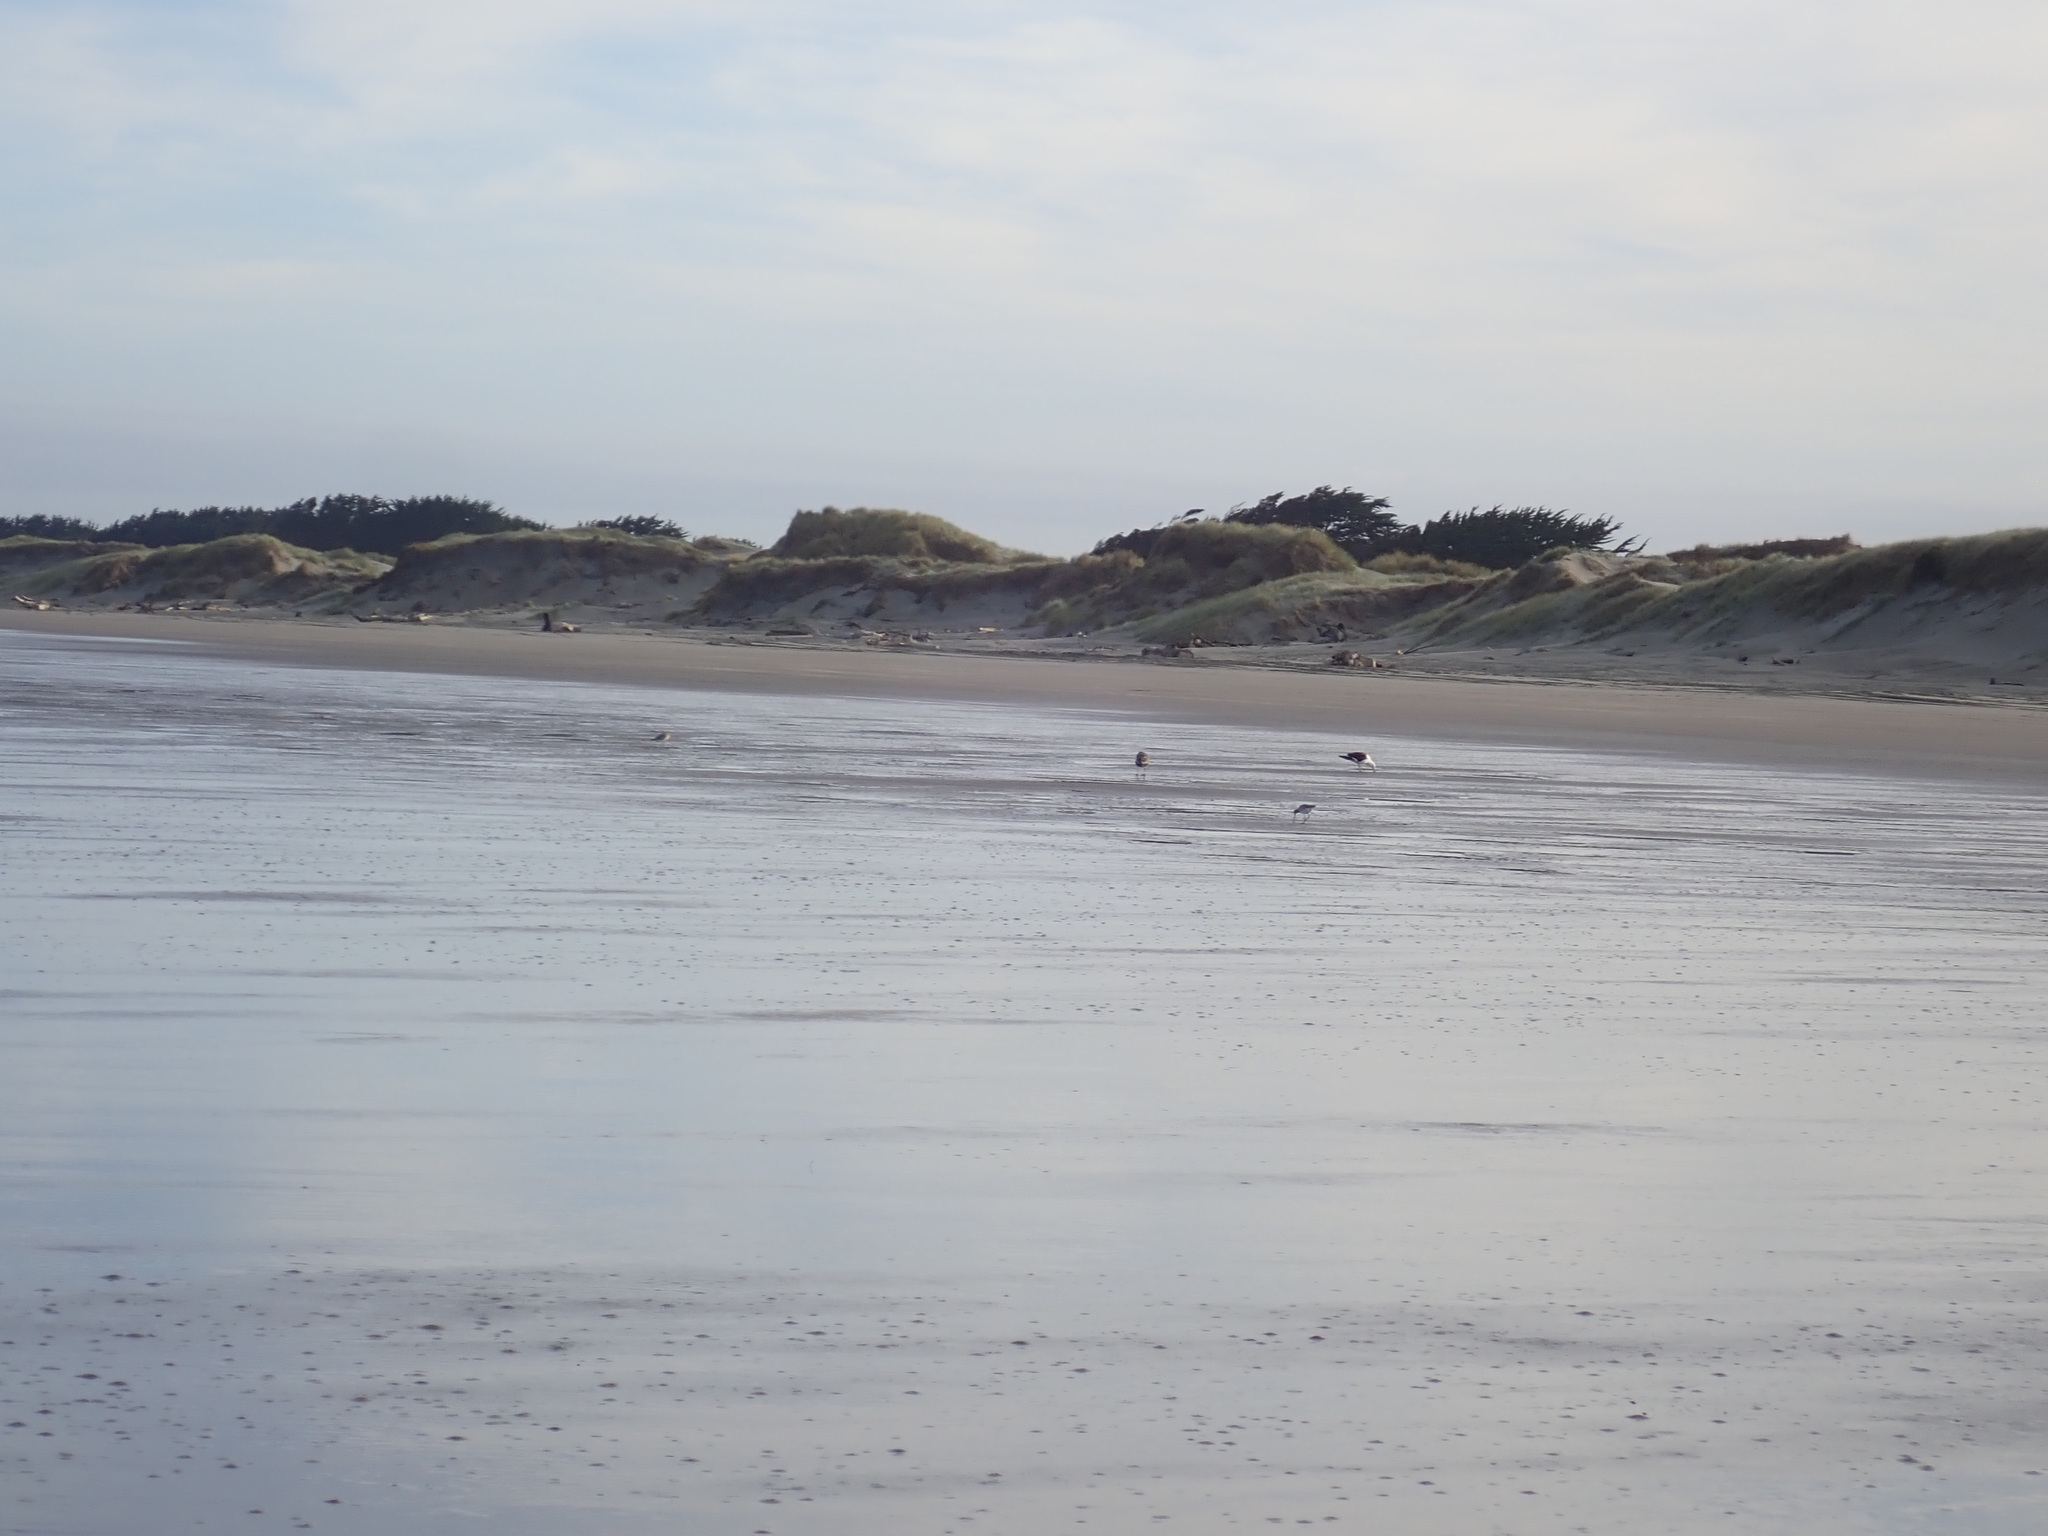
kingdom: Animalia
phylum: Chordata
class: Aves
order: Charadriiformes
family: Scolopacidae
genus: Limosa
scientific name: Limosa lapponica
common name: Bar-tailed godwit
